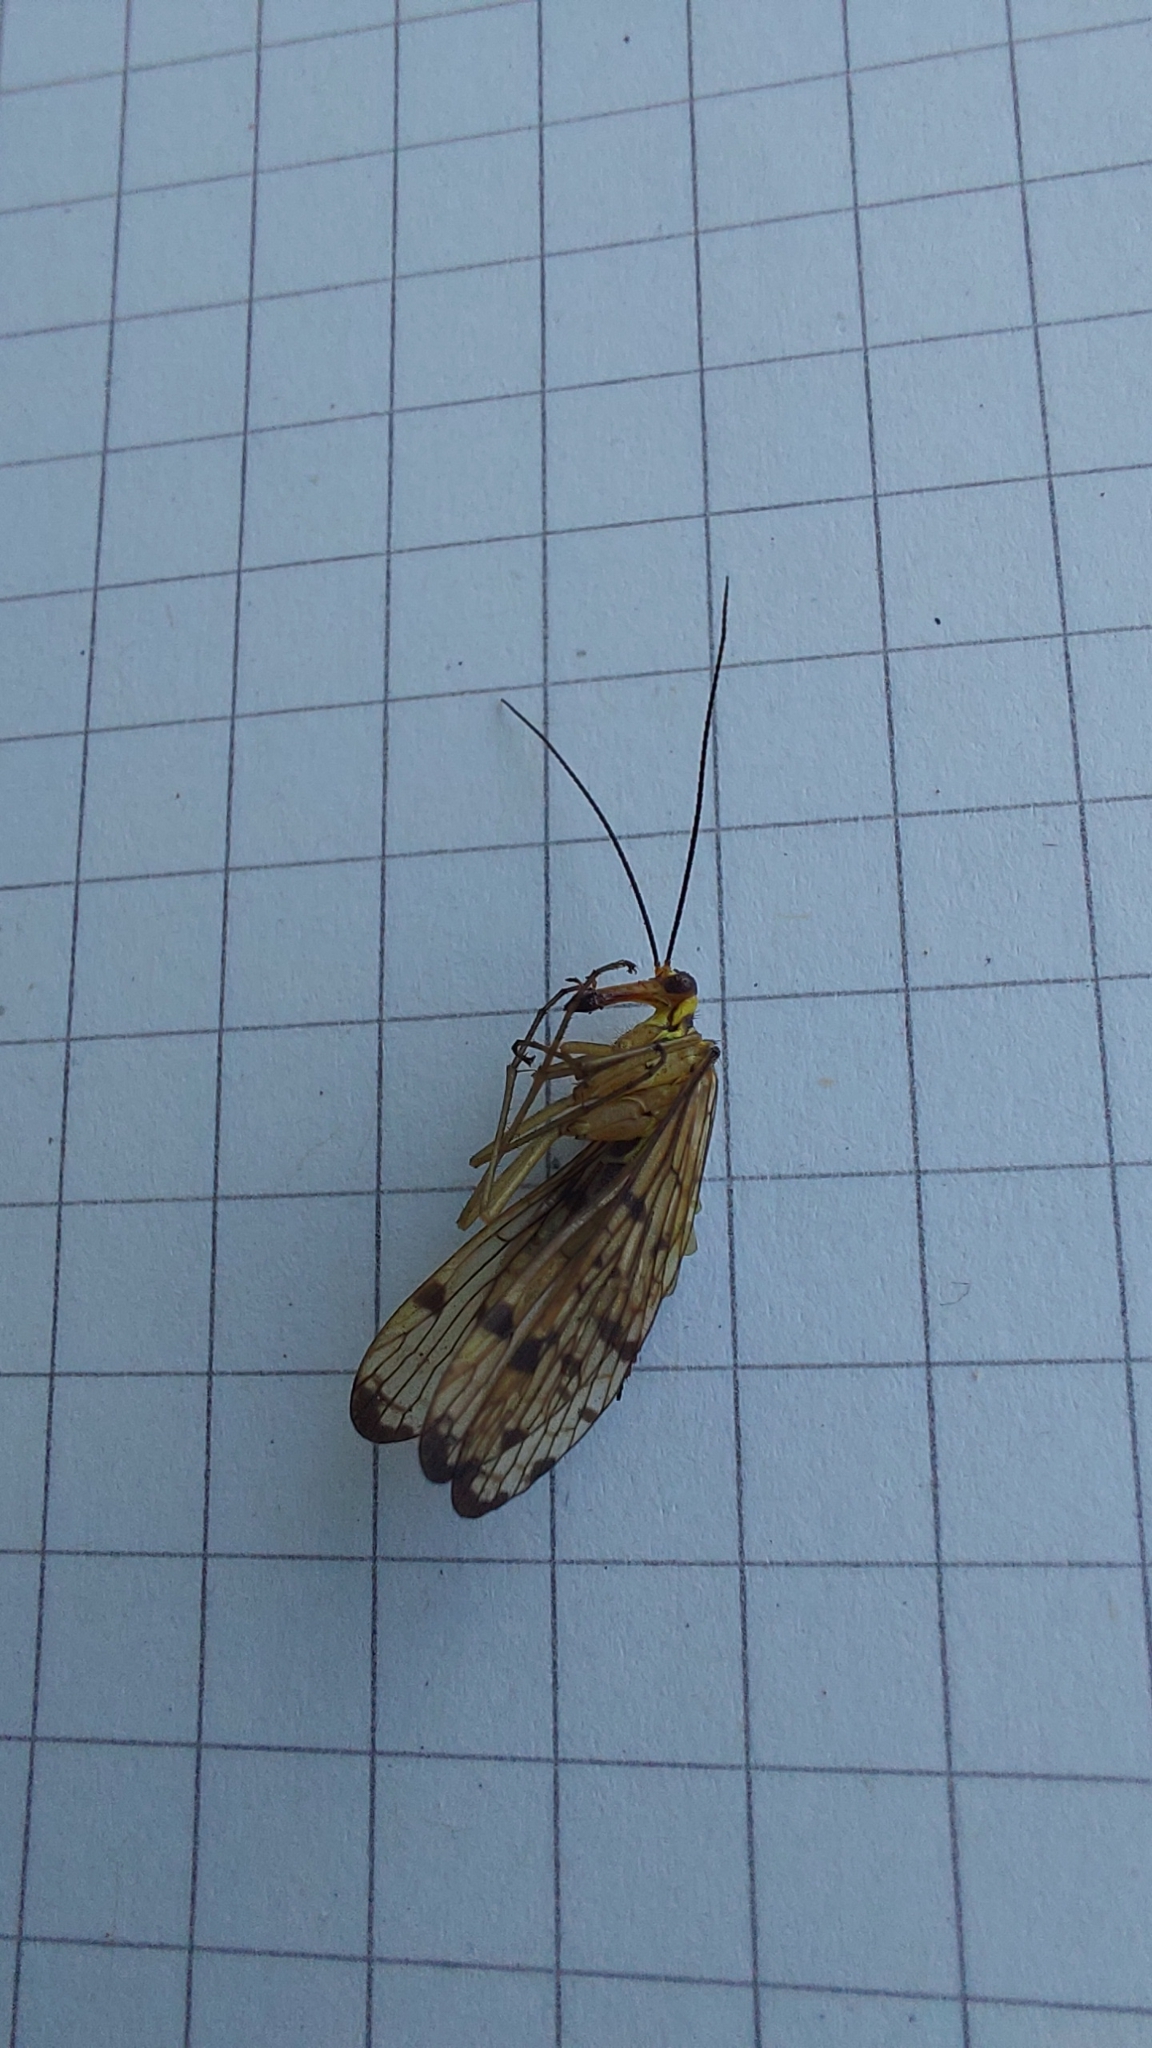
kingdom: Animalia
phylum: Arthropoda
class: Insecta
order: Mecoptera
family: Panorpidae
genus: Panorpa
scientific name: Panorpa germanica
